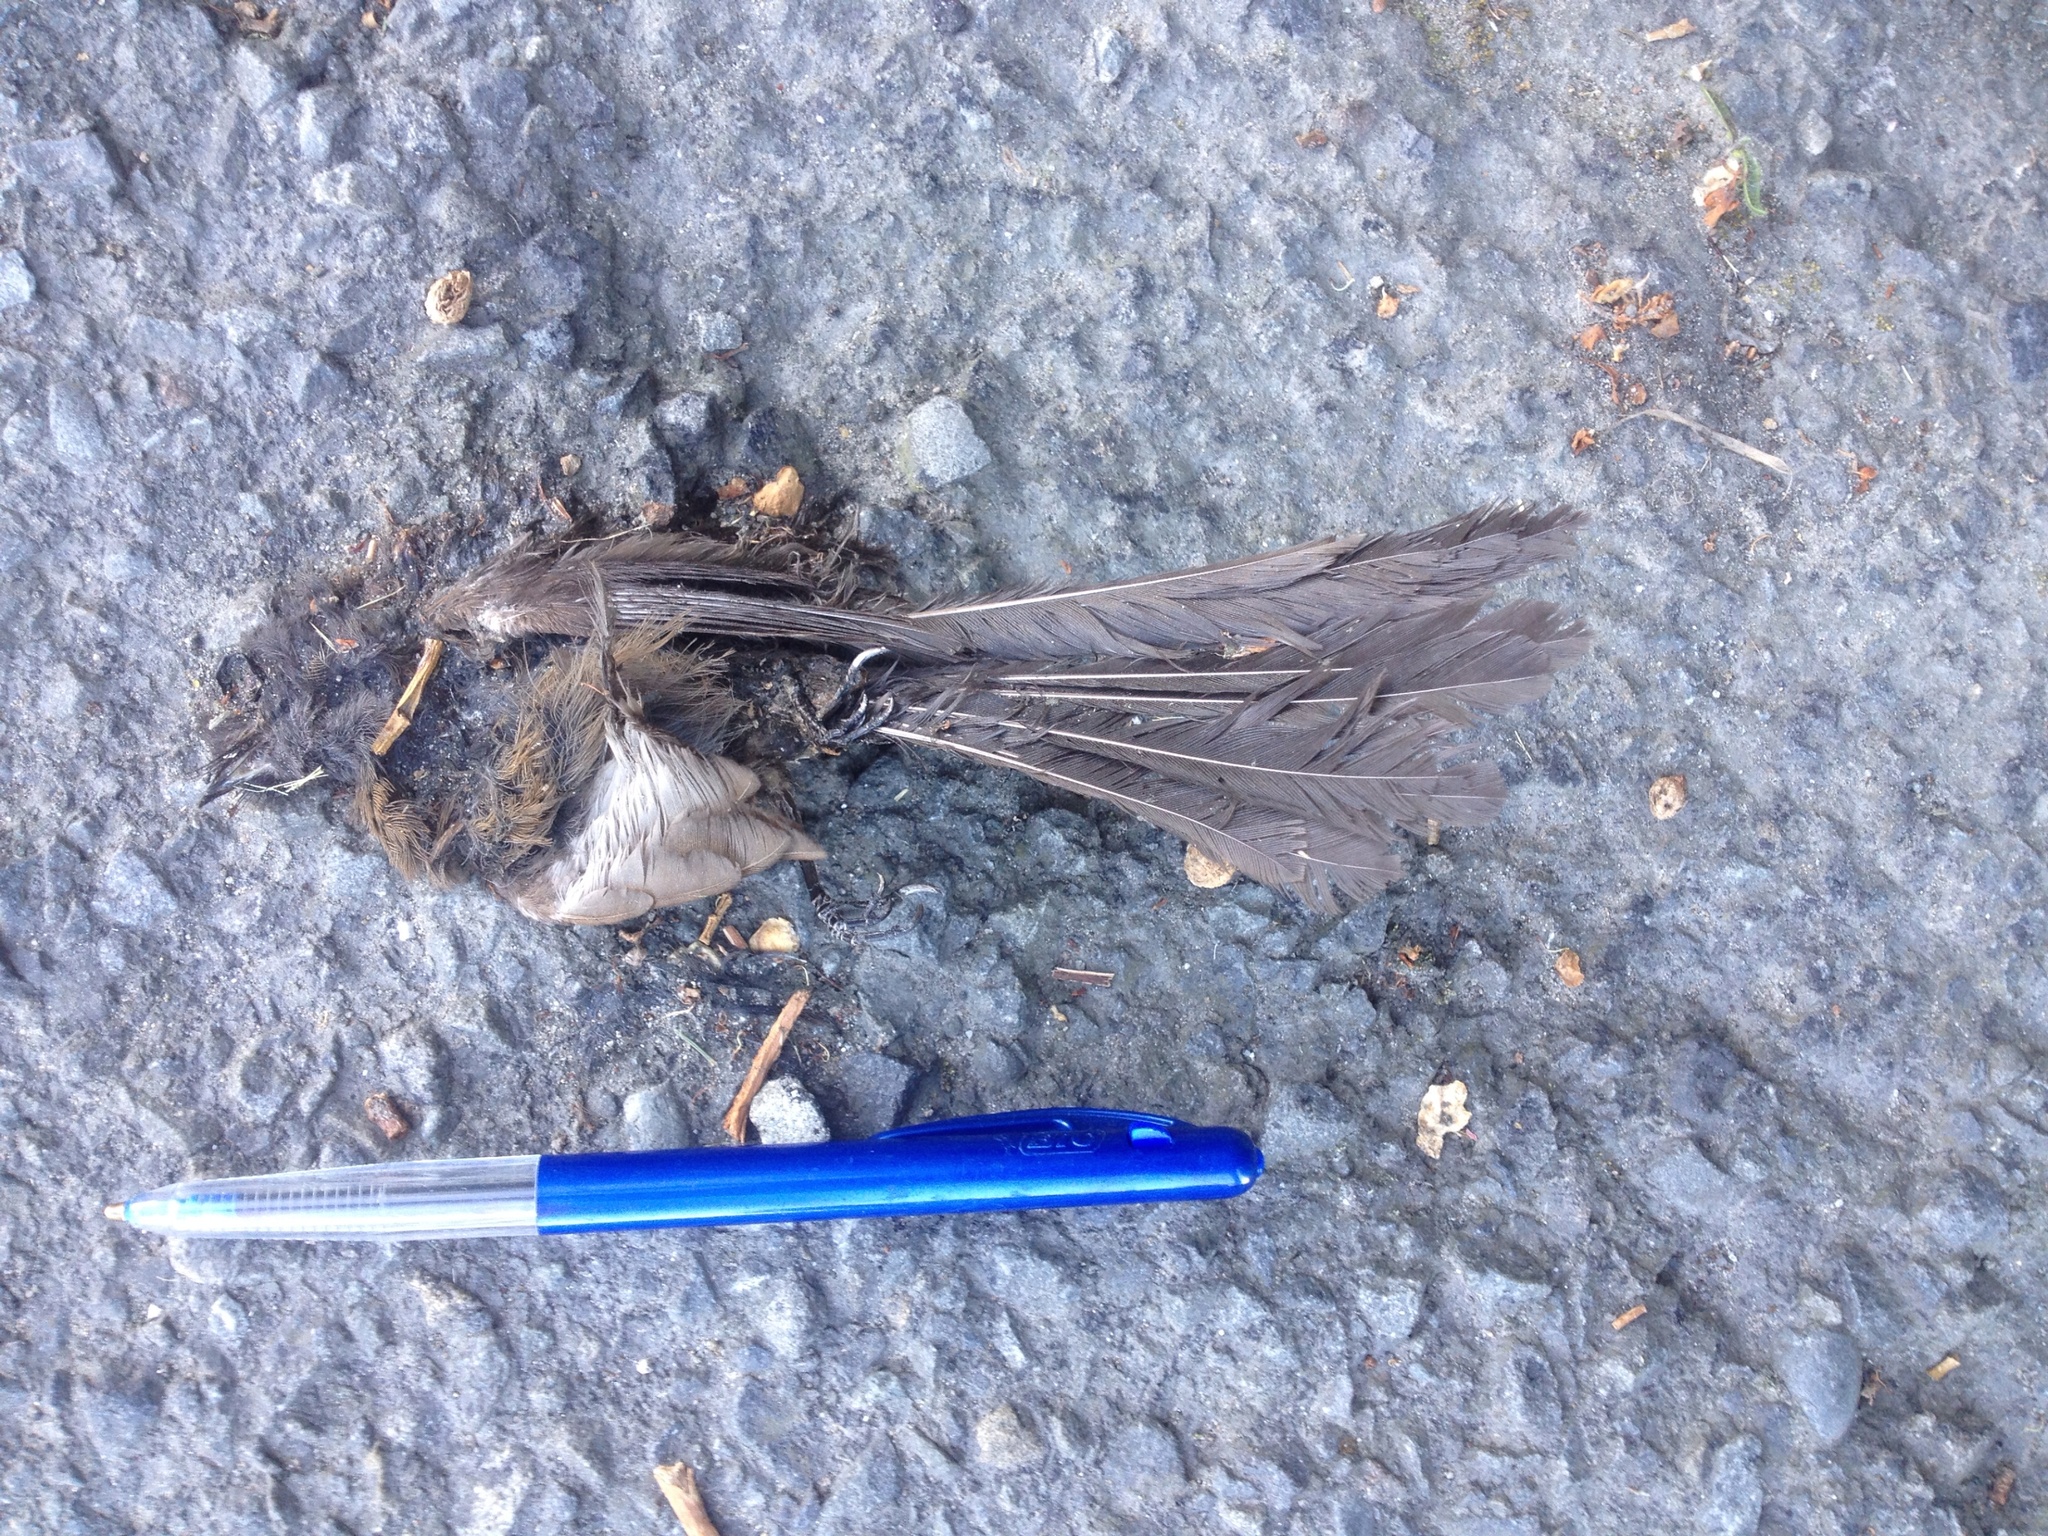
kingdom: Animalia
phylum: Chordata
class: Aves
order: Passeriformes
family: Rhipiduridae
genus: Rhipidura
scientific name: Rhipidura fuliginosa
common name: New zealand fantail
